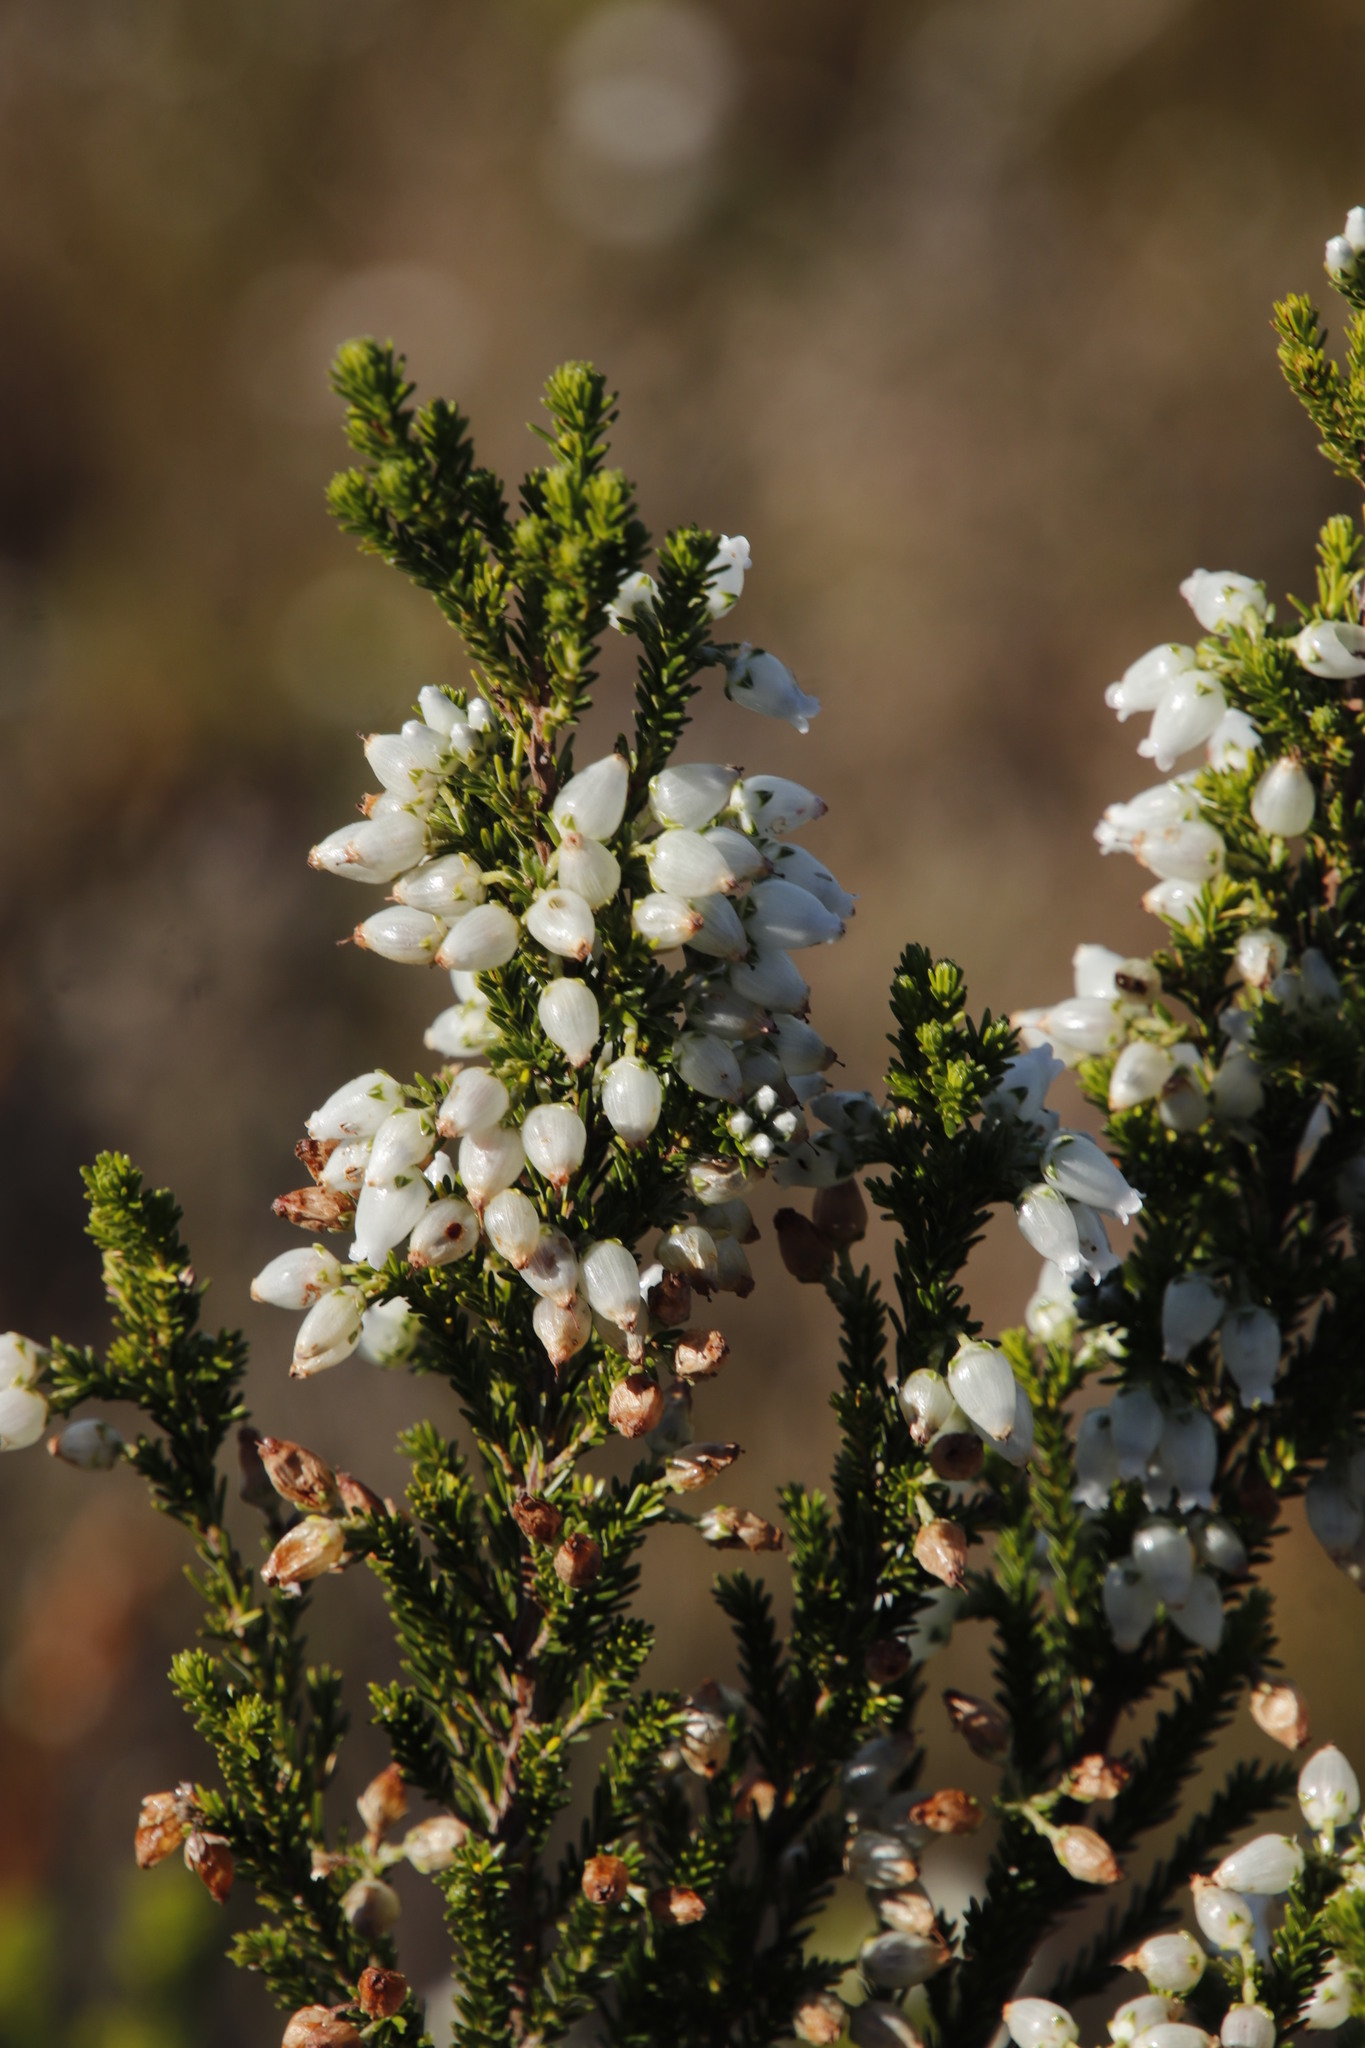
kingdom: Plantae
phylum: Tracheophyta
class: Magnoliopsida
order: Ericales
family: Ericaceae
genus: Erica
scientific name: Erica physodes
